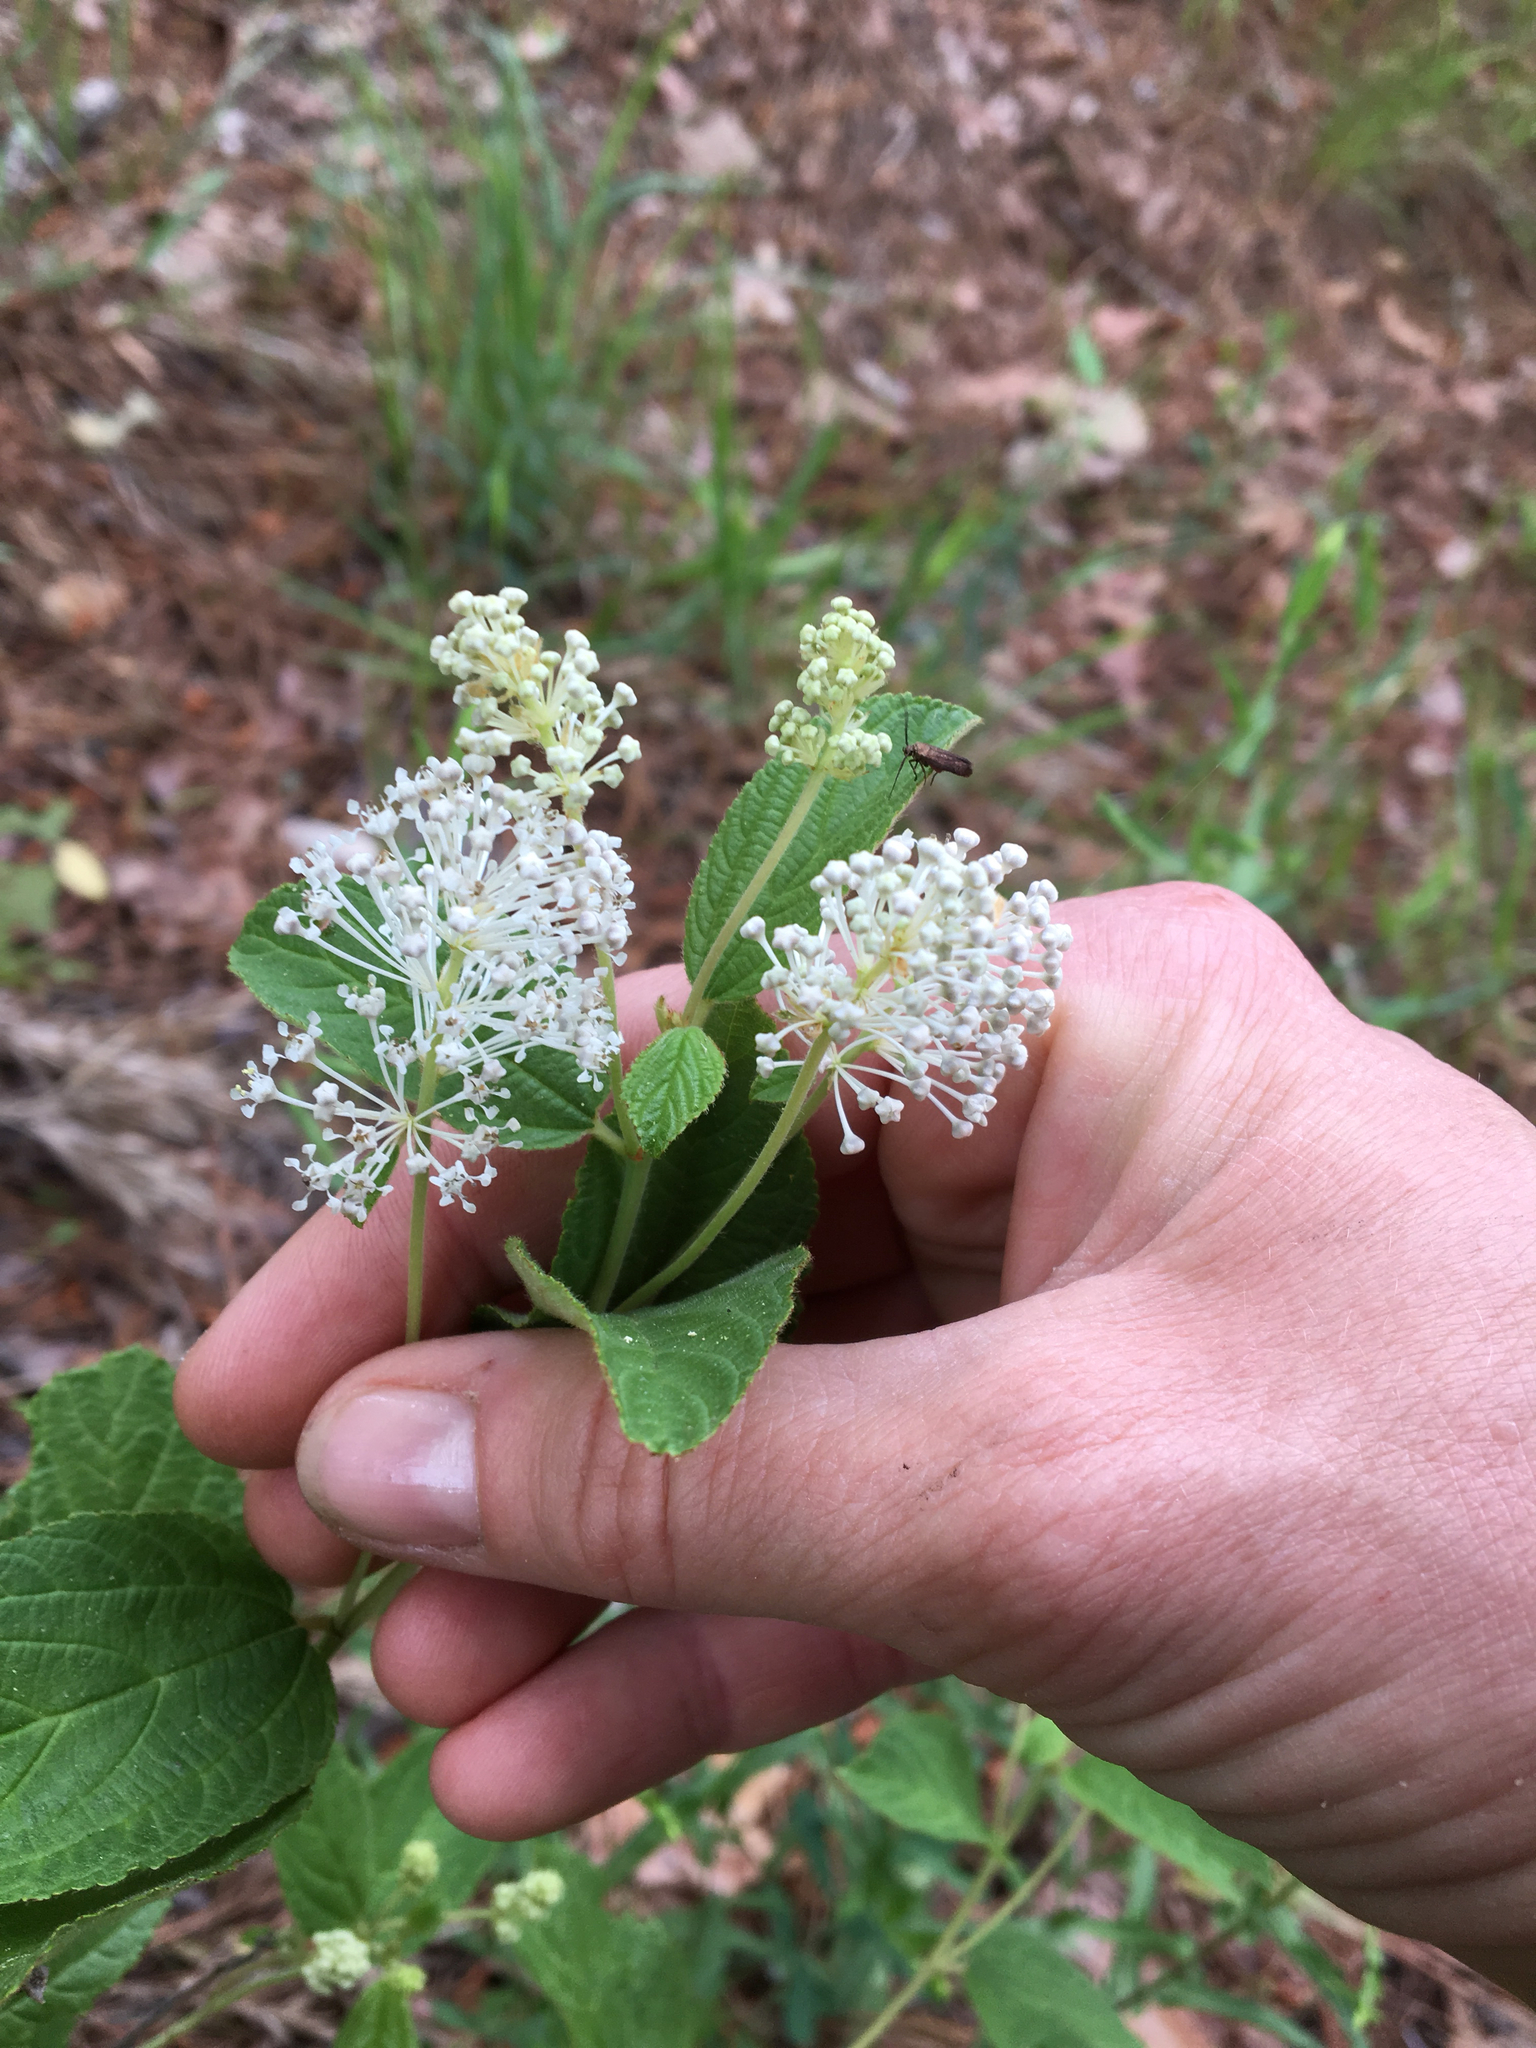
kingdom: Plantae
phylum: Tracheophyta
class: Magnoliopsida
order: Rosales
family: Rhamnaceae
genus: Ceanothus
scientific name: Ceanothus americanus
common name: Redroot
